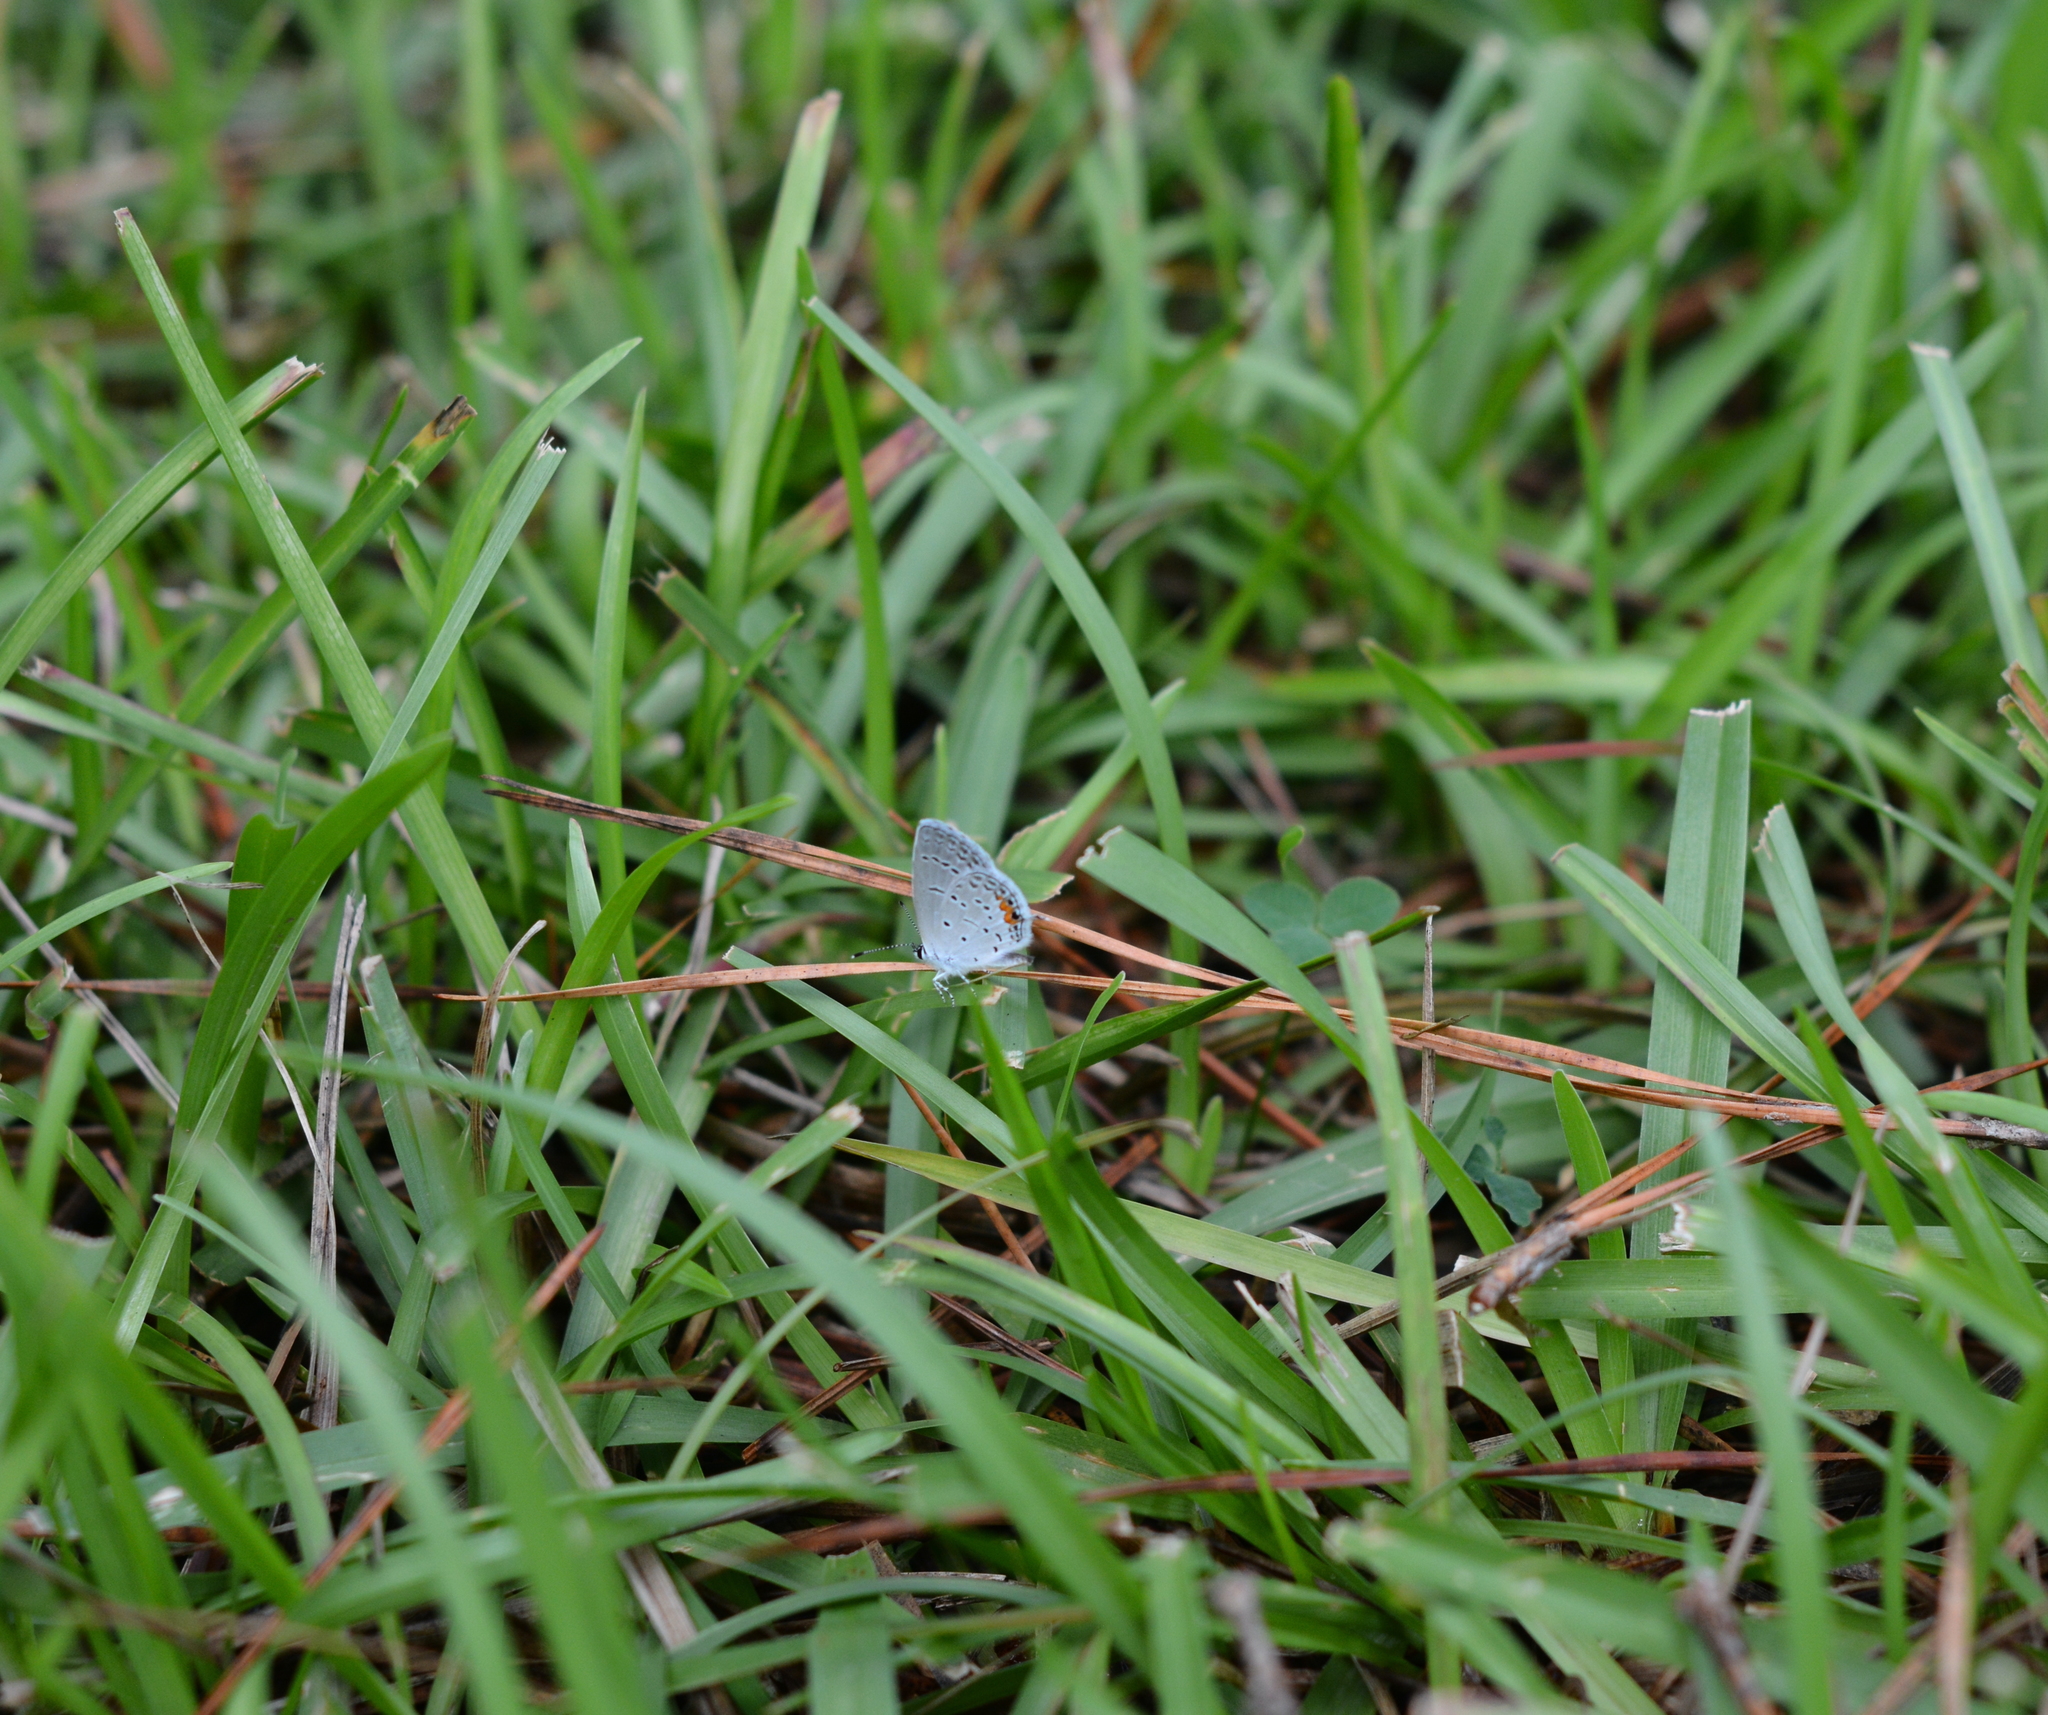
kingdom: Animalia
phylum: Arthropoda
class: Insecta
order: Lepidoptera
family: Lycaenidae
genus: Elkalyce
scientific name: Elkalyce comyntas
